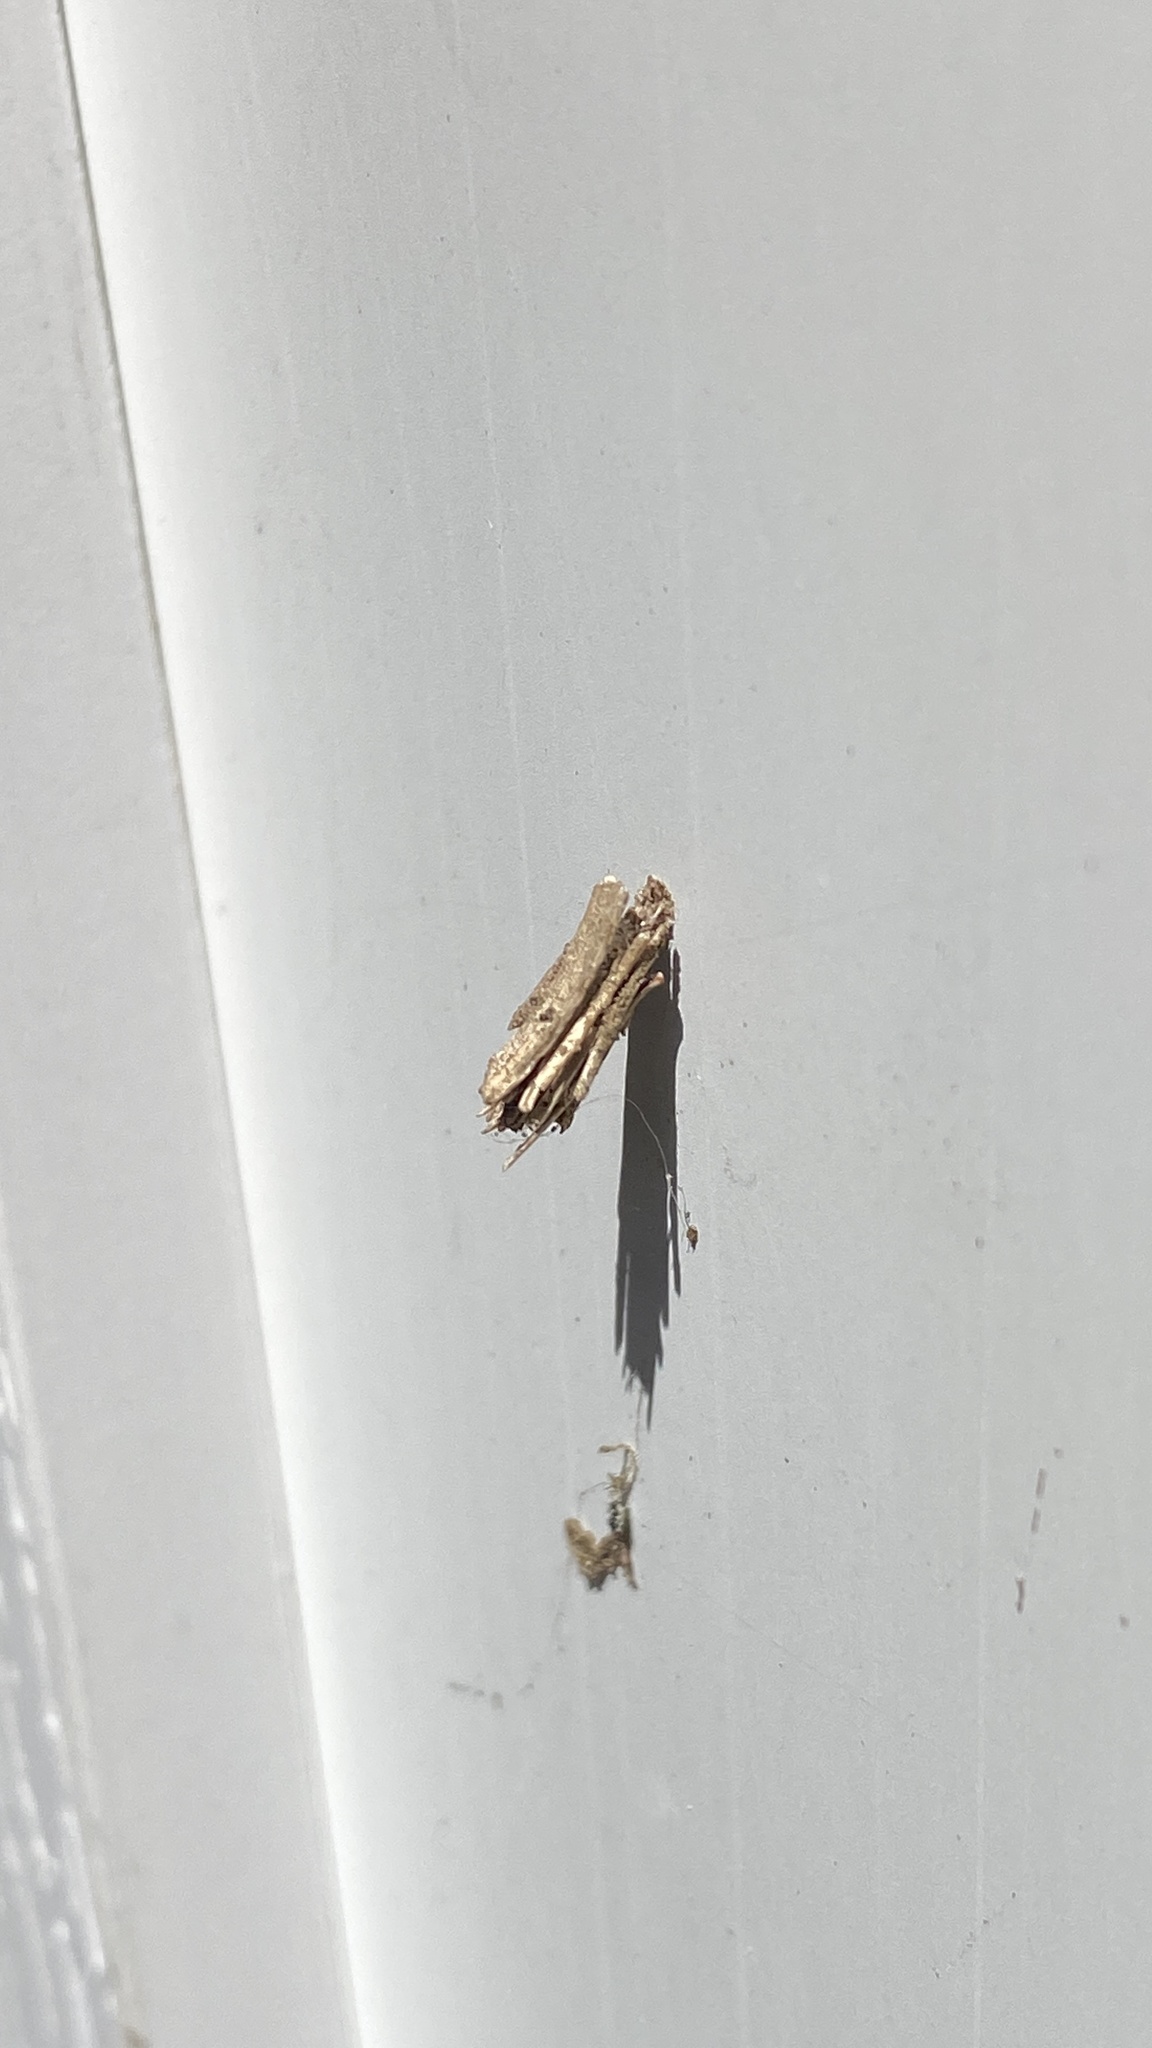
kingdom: Animalia
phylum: Arthropoda
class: Insecta
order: Lepidoptera
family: Psychidae
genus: Psyche
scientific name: Psyche casta
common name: Common sweep
